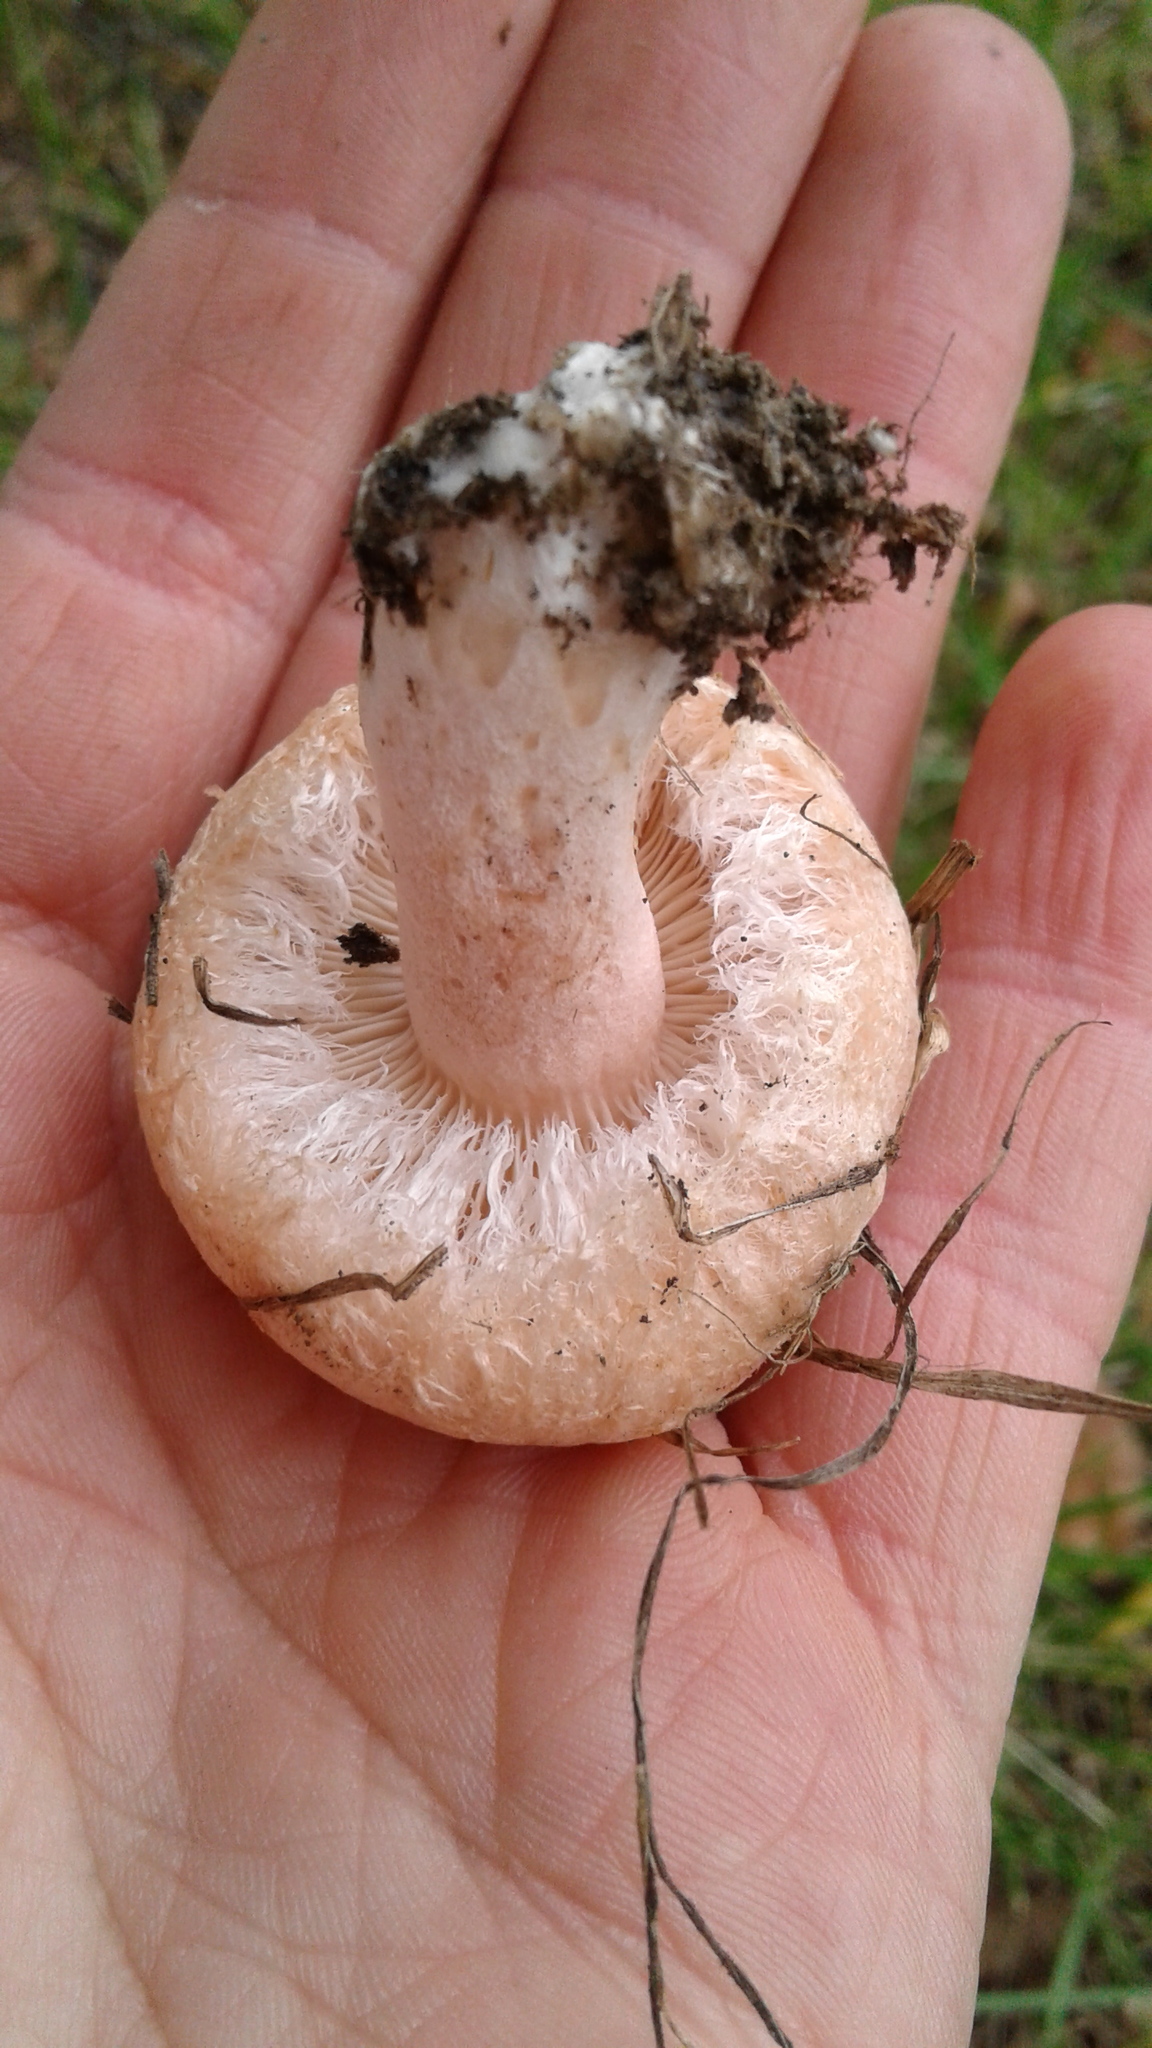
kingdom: Fungi
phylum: Basidiomycota
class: Agaricomycetes
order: Russulales
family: Russulaceae
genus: Lactarius
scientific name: Lactarius pubescens
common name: Bearded milkcap
